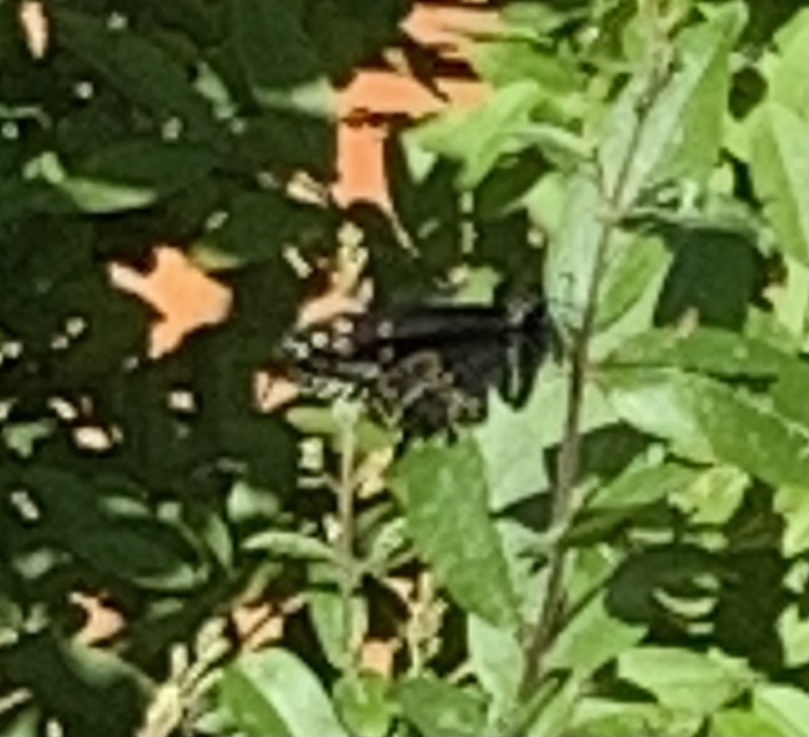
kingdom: Animalia
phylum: Arthropoda
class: Insecta
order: Lepidoptera
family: Papilionidae
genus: Papilio
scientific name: Papilio polyxenes
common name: Black swallowtail
